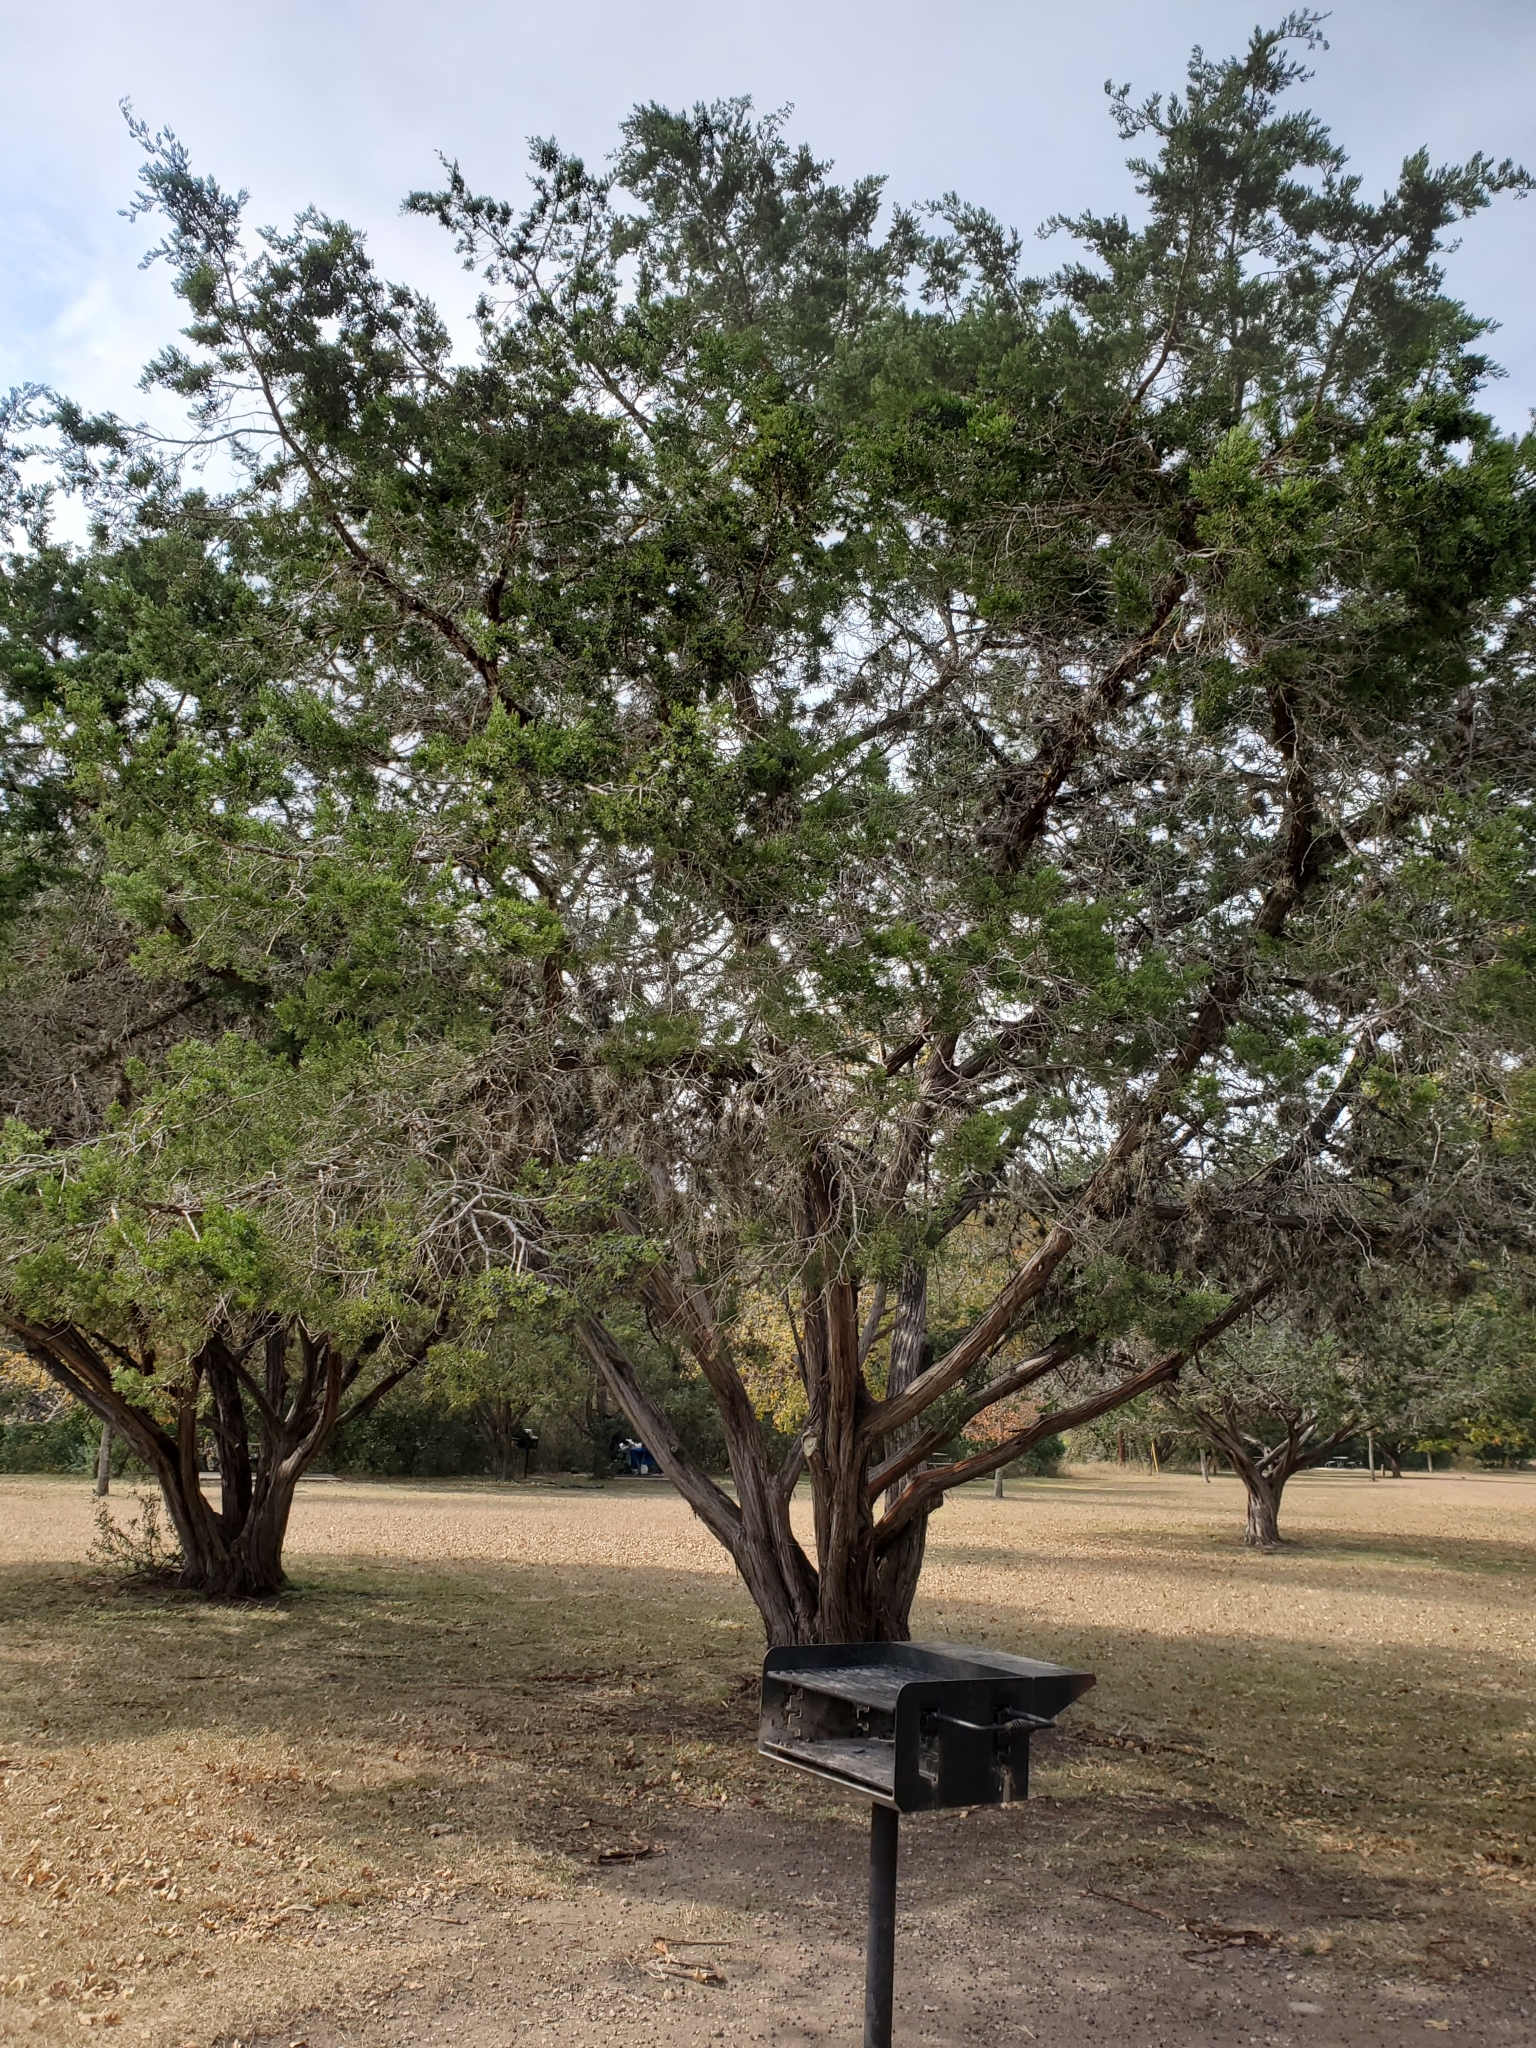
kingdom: Plantae
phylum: Tracheophyta
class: Pinopsida
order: Pinales
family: Cupressaceae
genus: Juniperus
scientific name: Juniperus ashei
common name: Mexican juniper
